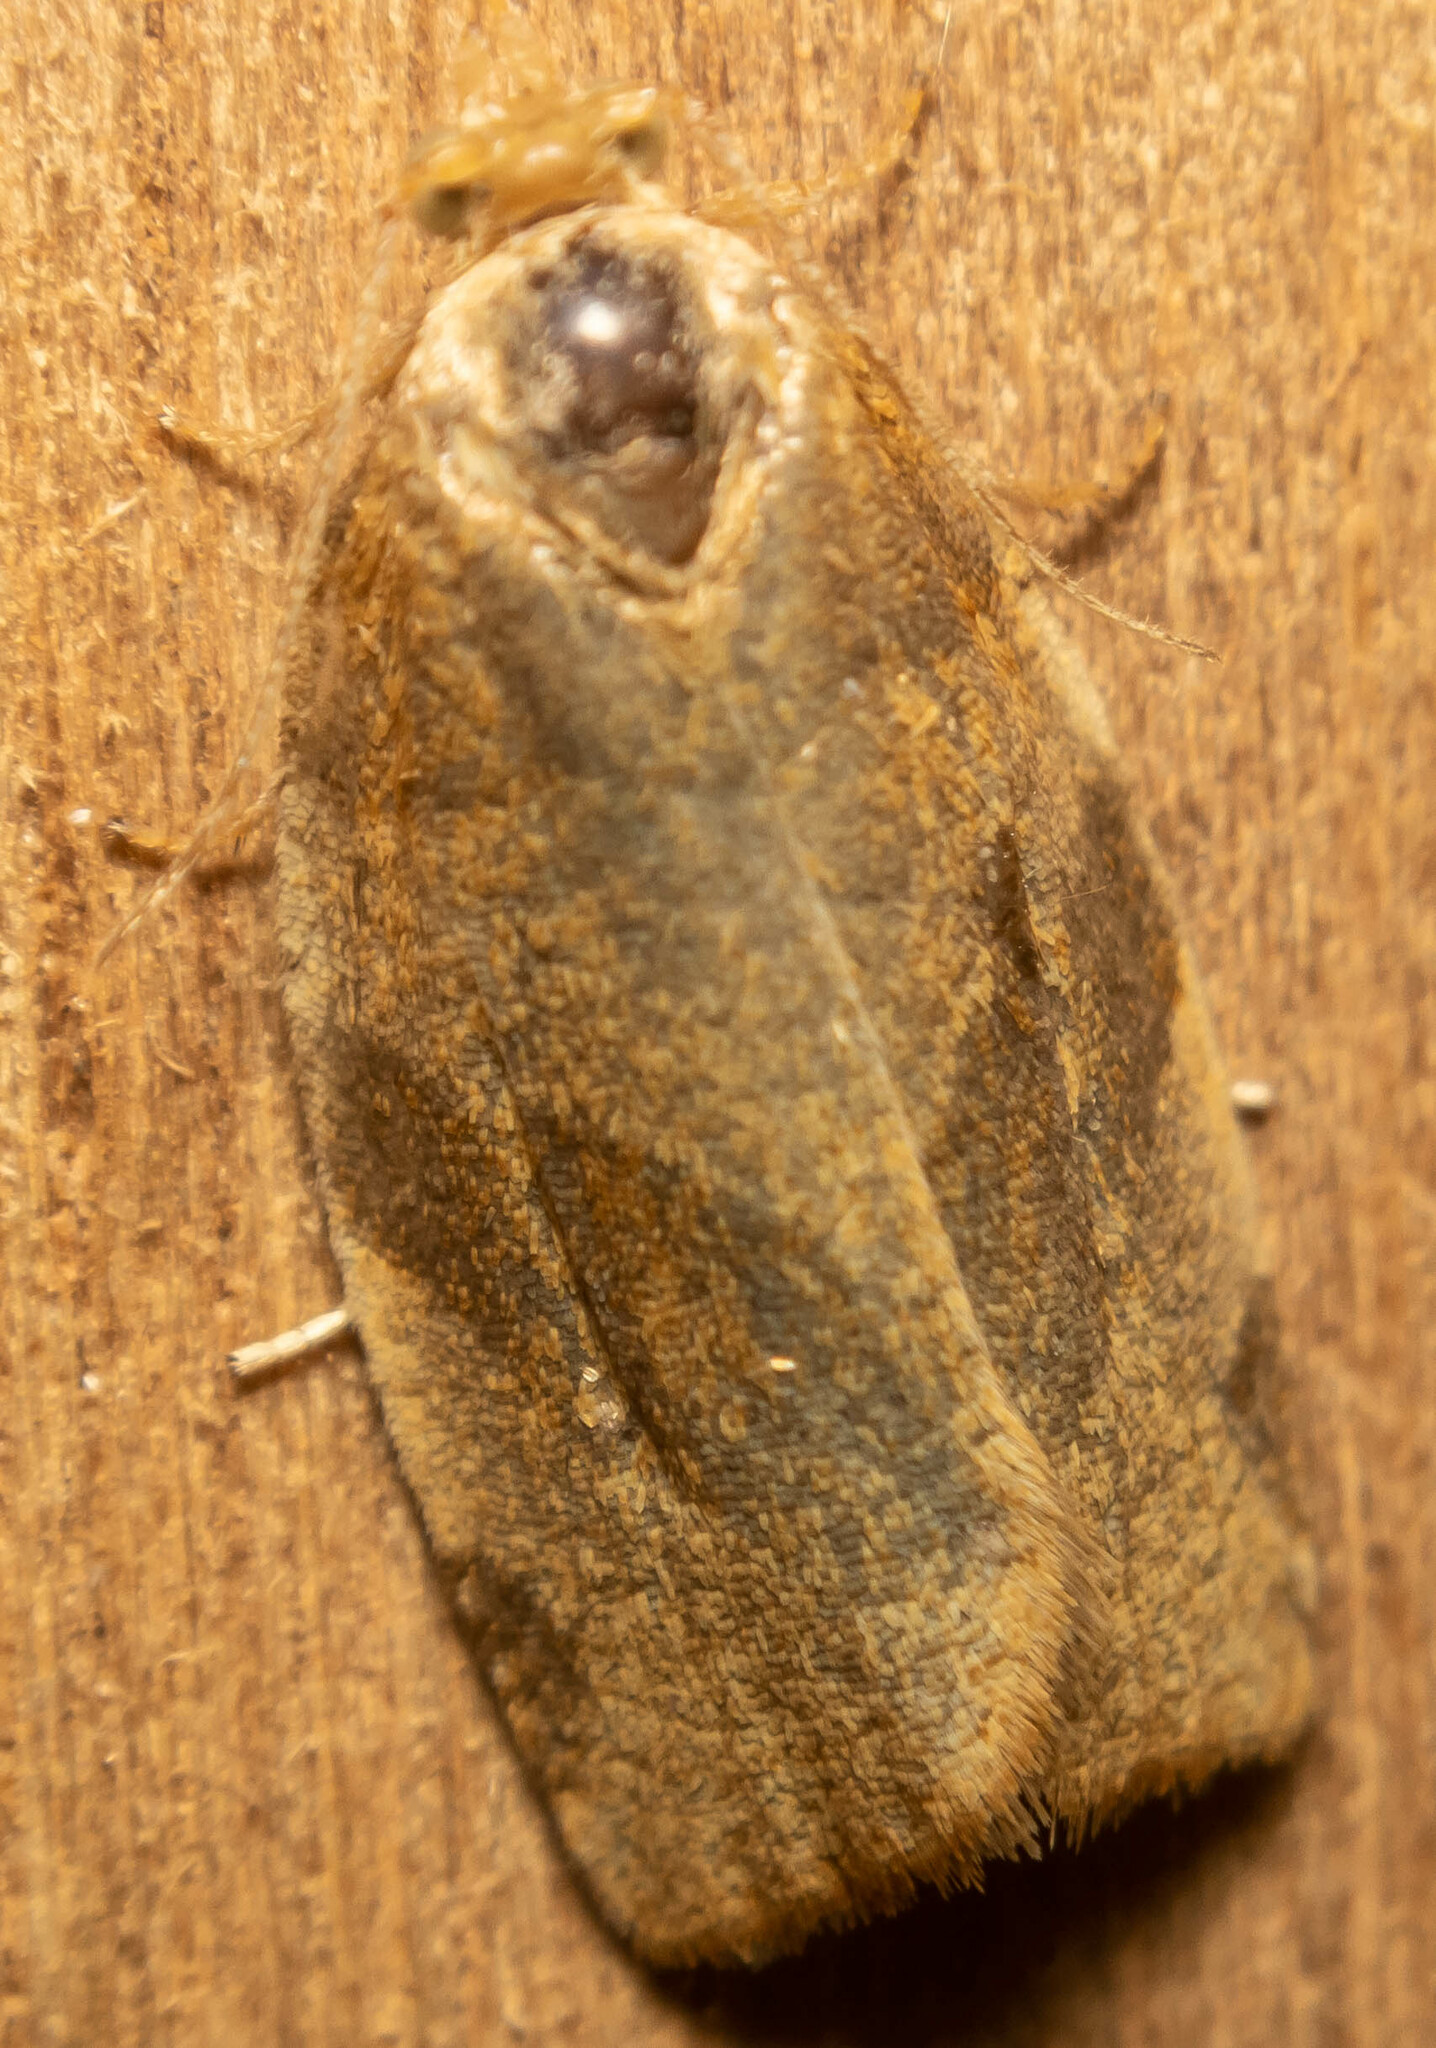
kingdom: Animalia
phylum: Arthropoda
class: Insecta
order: Lepidoptera
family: Tortricidae
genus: Pandemis
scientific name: Pandemis cerasana
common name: Barred fruit-tree tortrix
